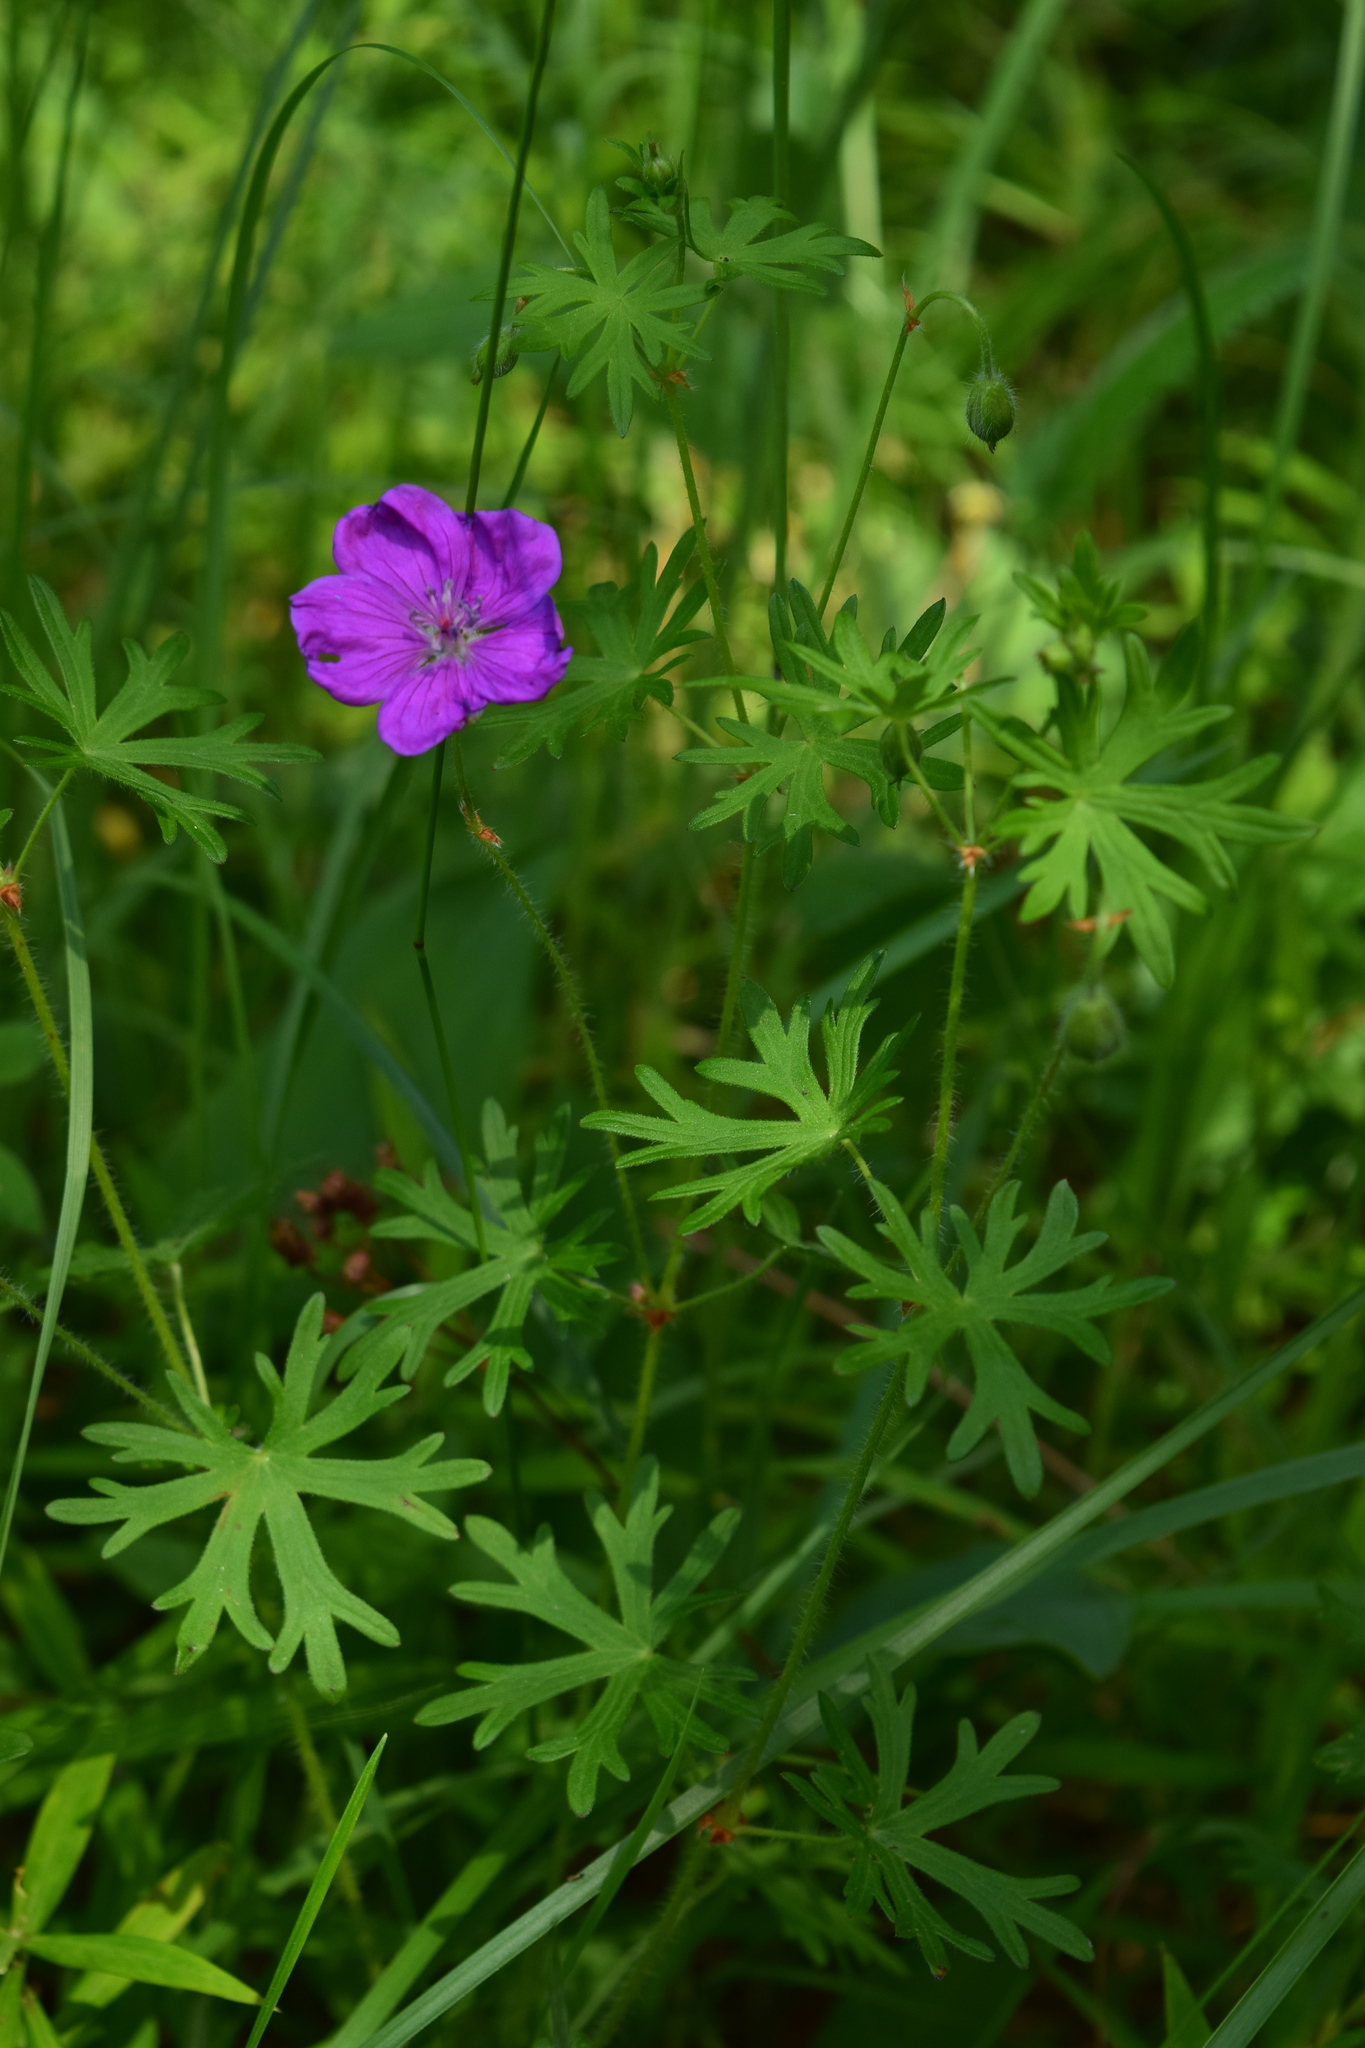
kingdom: Plantae
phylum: Tracheophyta
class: Magnoliopsida
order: Geraniales
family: Geraniaceae
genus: Geranium
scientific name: Geranium sanguineum
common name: Bloody crane's-bill
